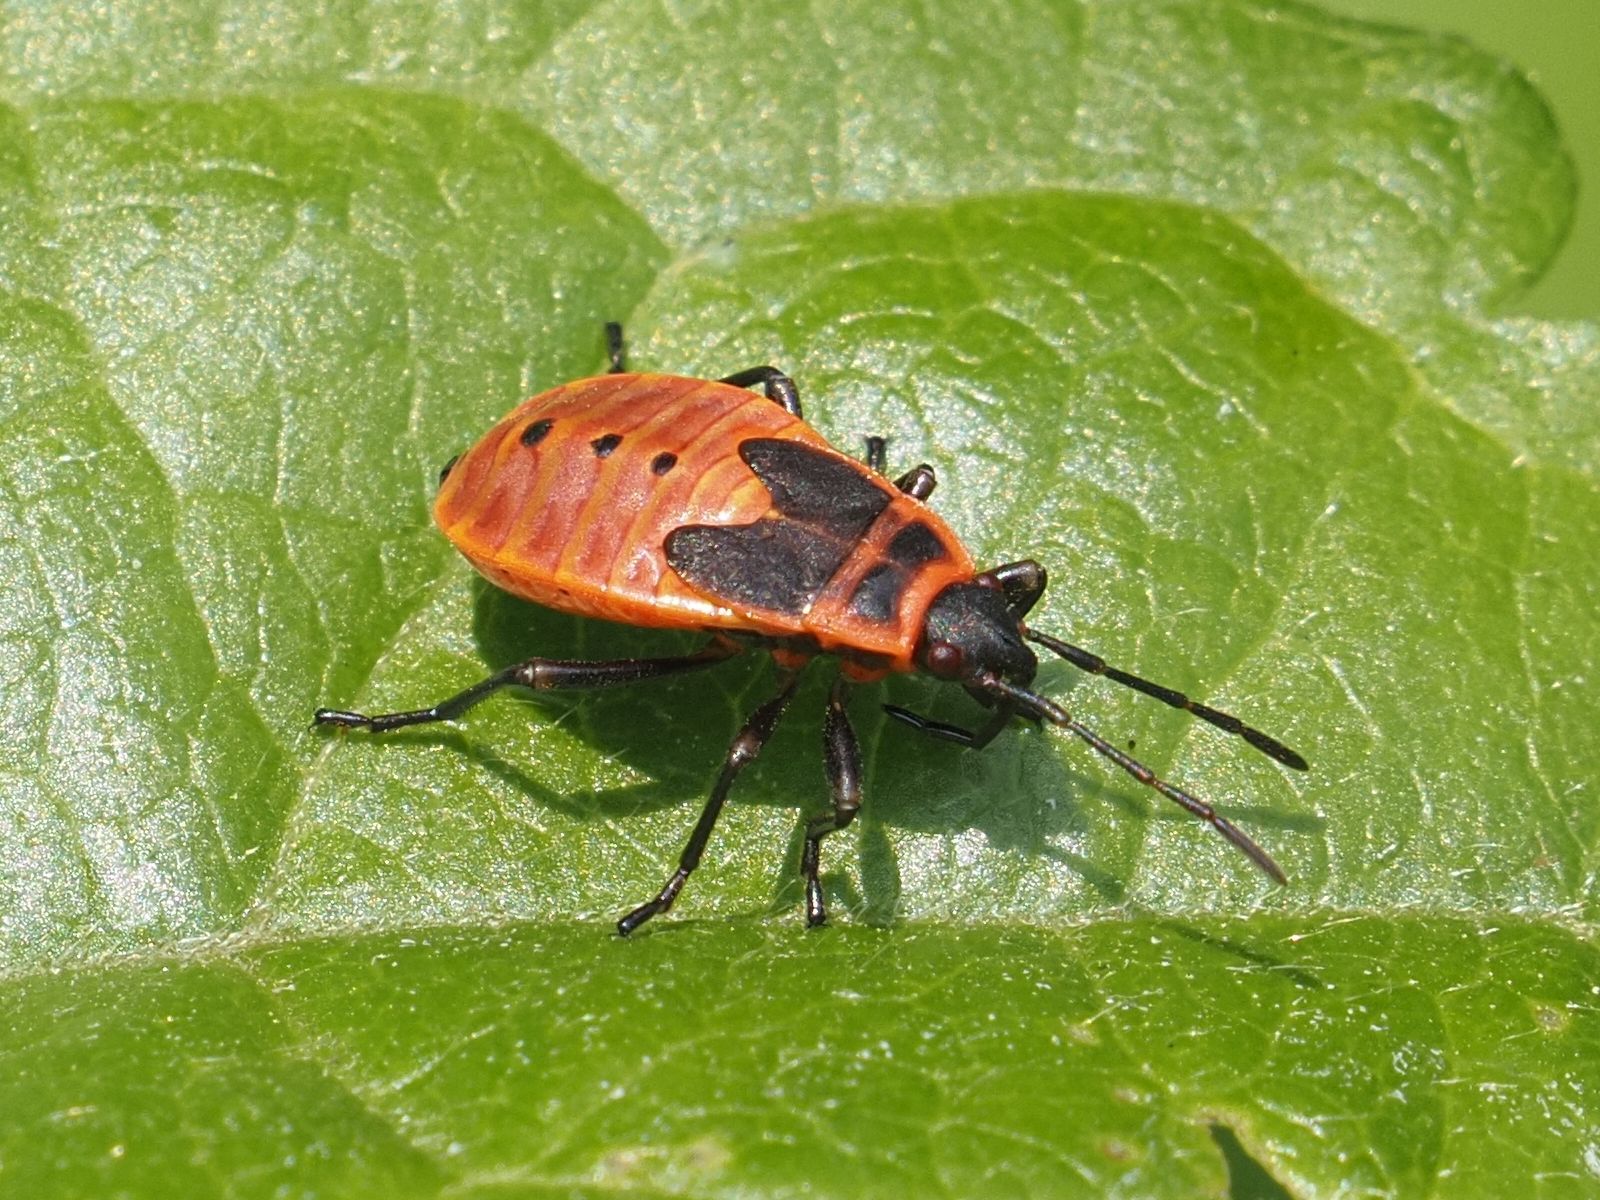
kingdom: Animalia
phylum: Arthropoda
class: Insecta
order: Hemiptera
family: Pyrrhocoridae
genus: Pyrrhocoris
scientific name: Pyrrhocoris apterus
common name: Firebug
